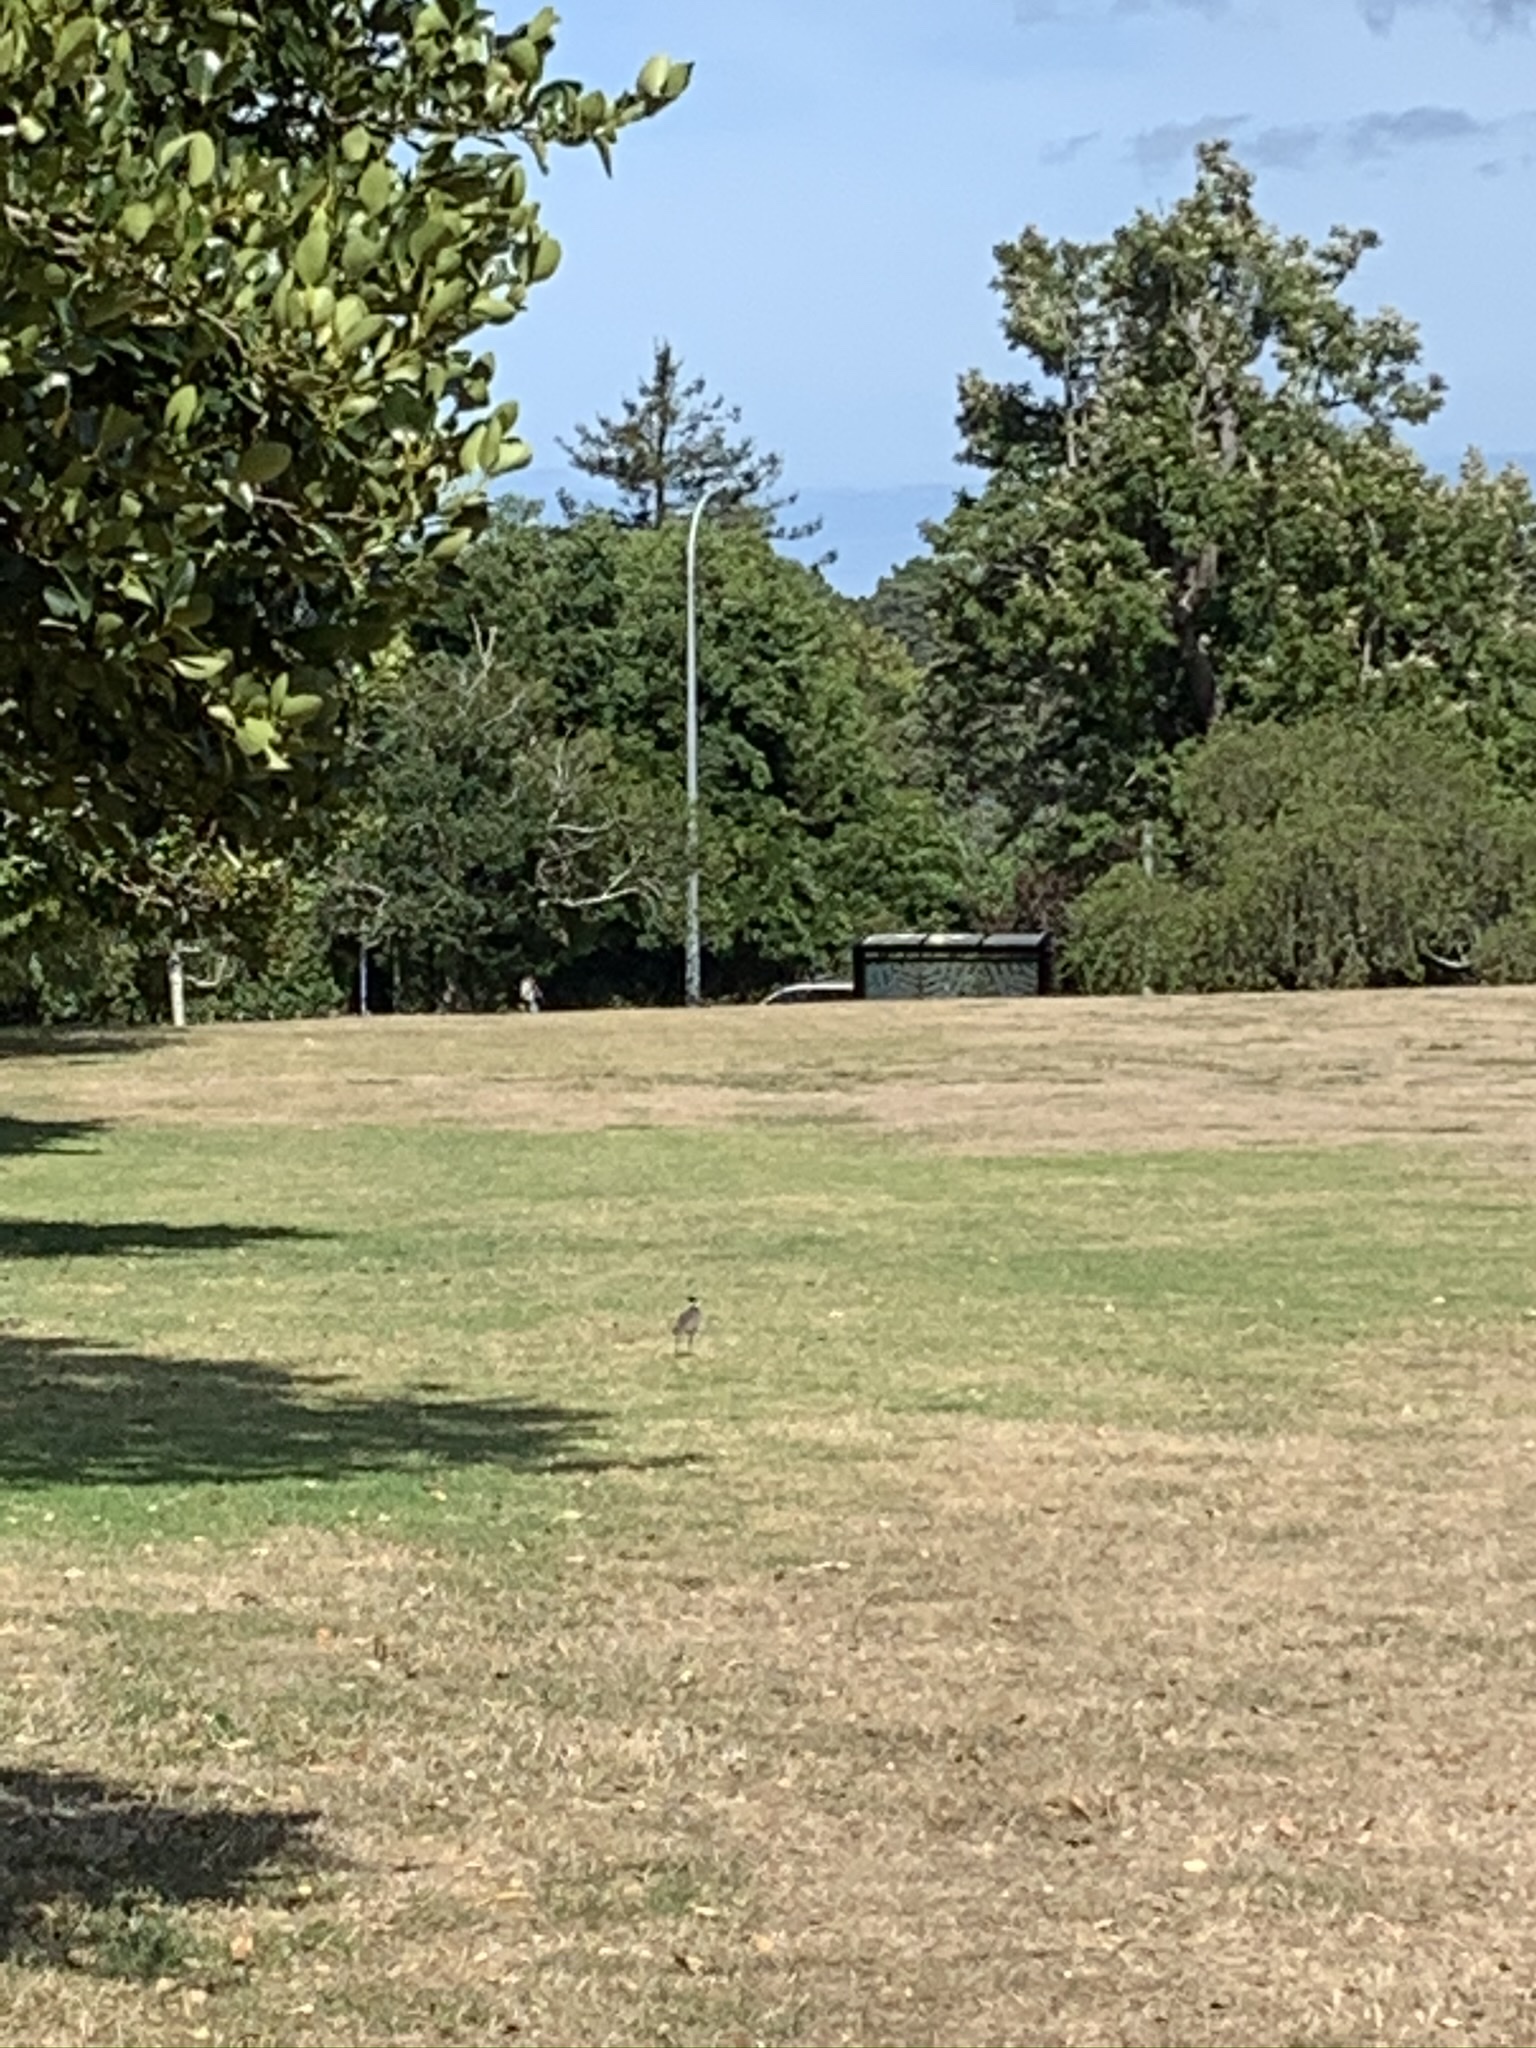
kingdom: Animalia
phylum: Chordata
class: Aves
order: Charadriiformes
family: Charadriidae
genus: Vanellus
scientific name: Vanellus miles
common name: Masked lapwing
